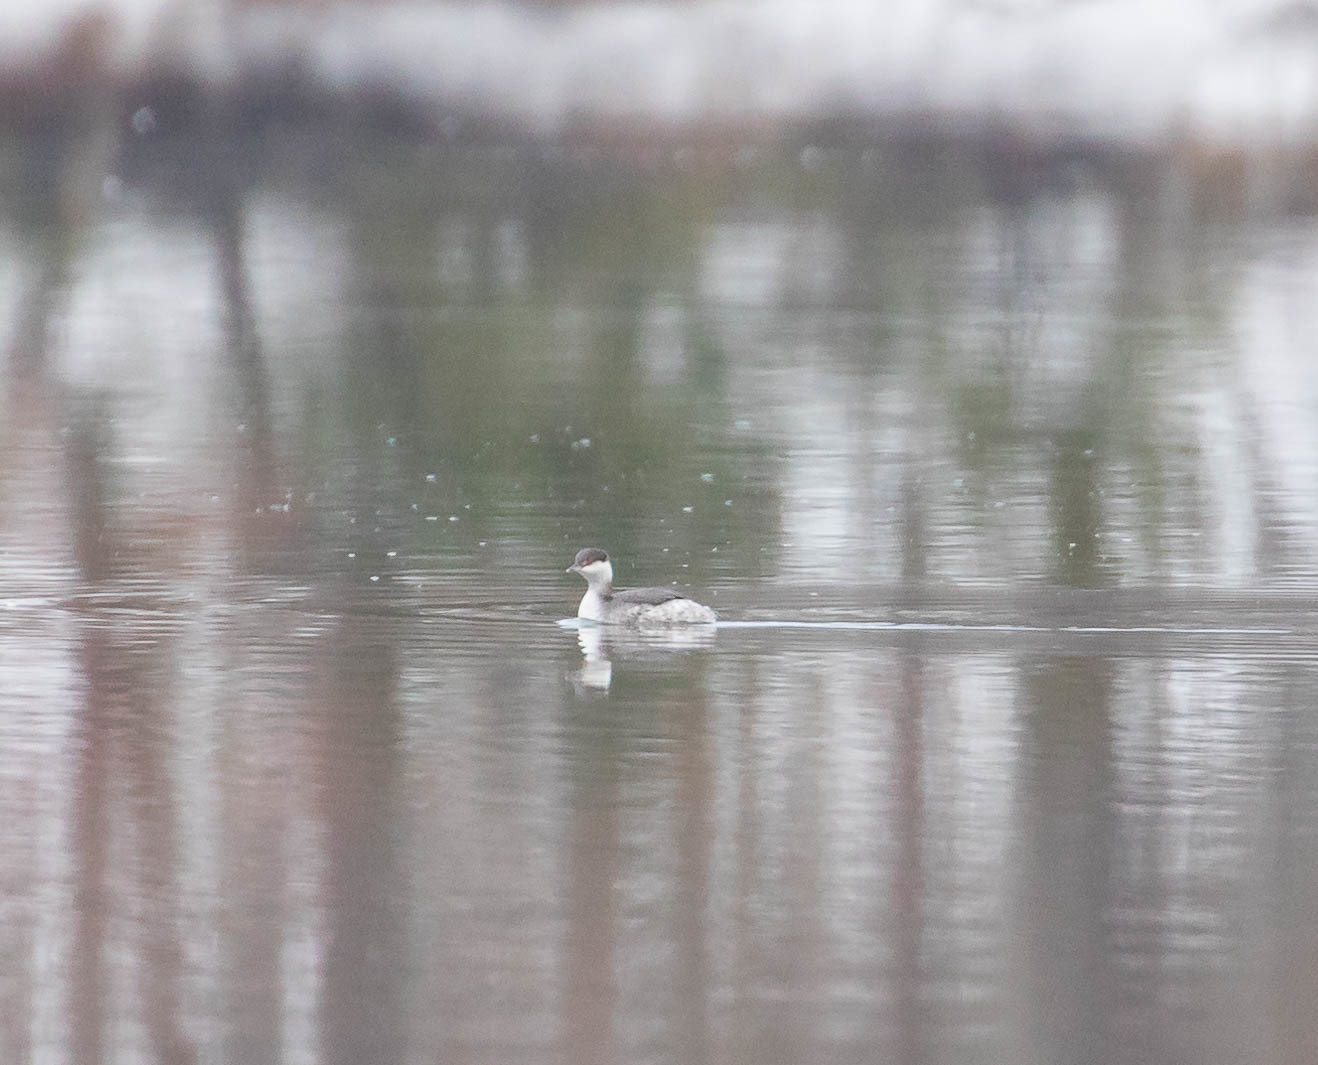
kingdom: Animalia
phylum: Chordata
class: Aves
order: Podicipediformes
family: Podicipedidae
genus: Podiceps
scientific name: Podiceps auritus
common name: Horned grebe
